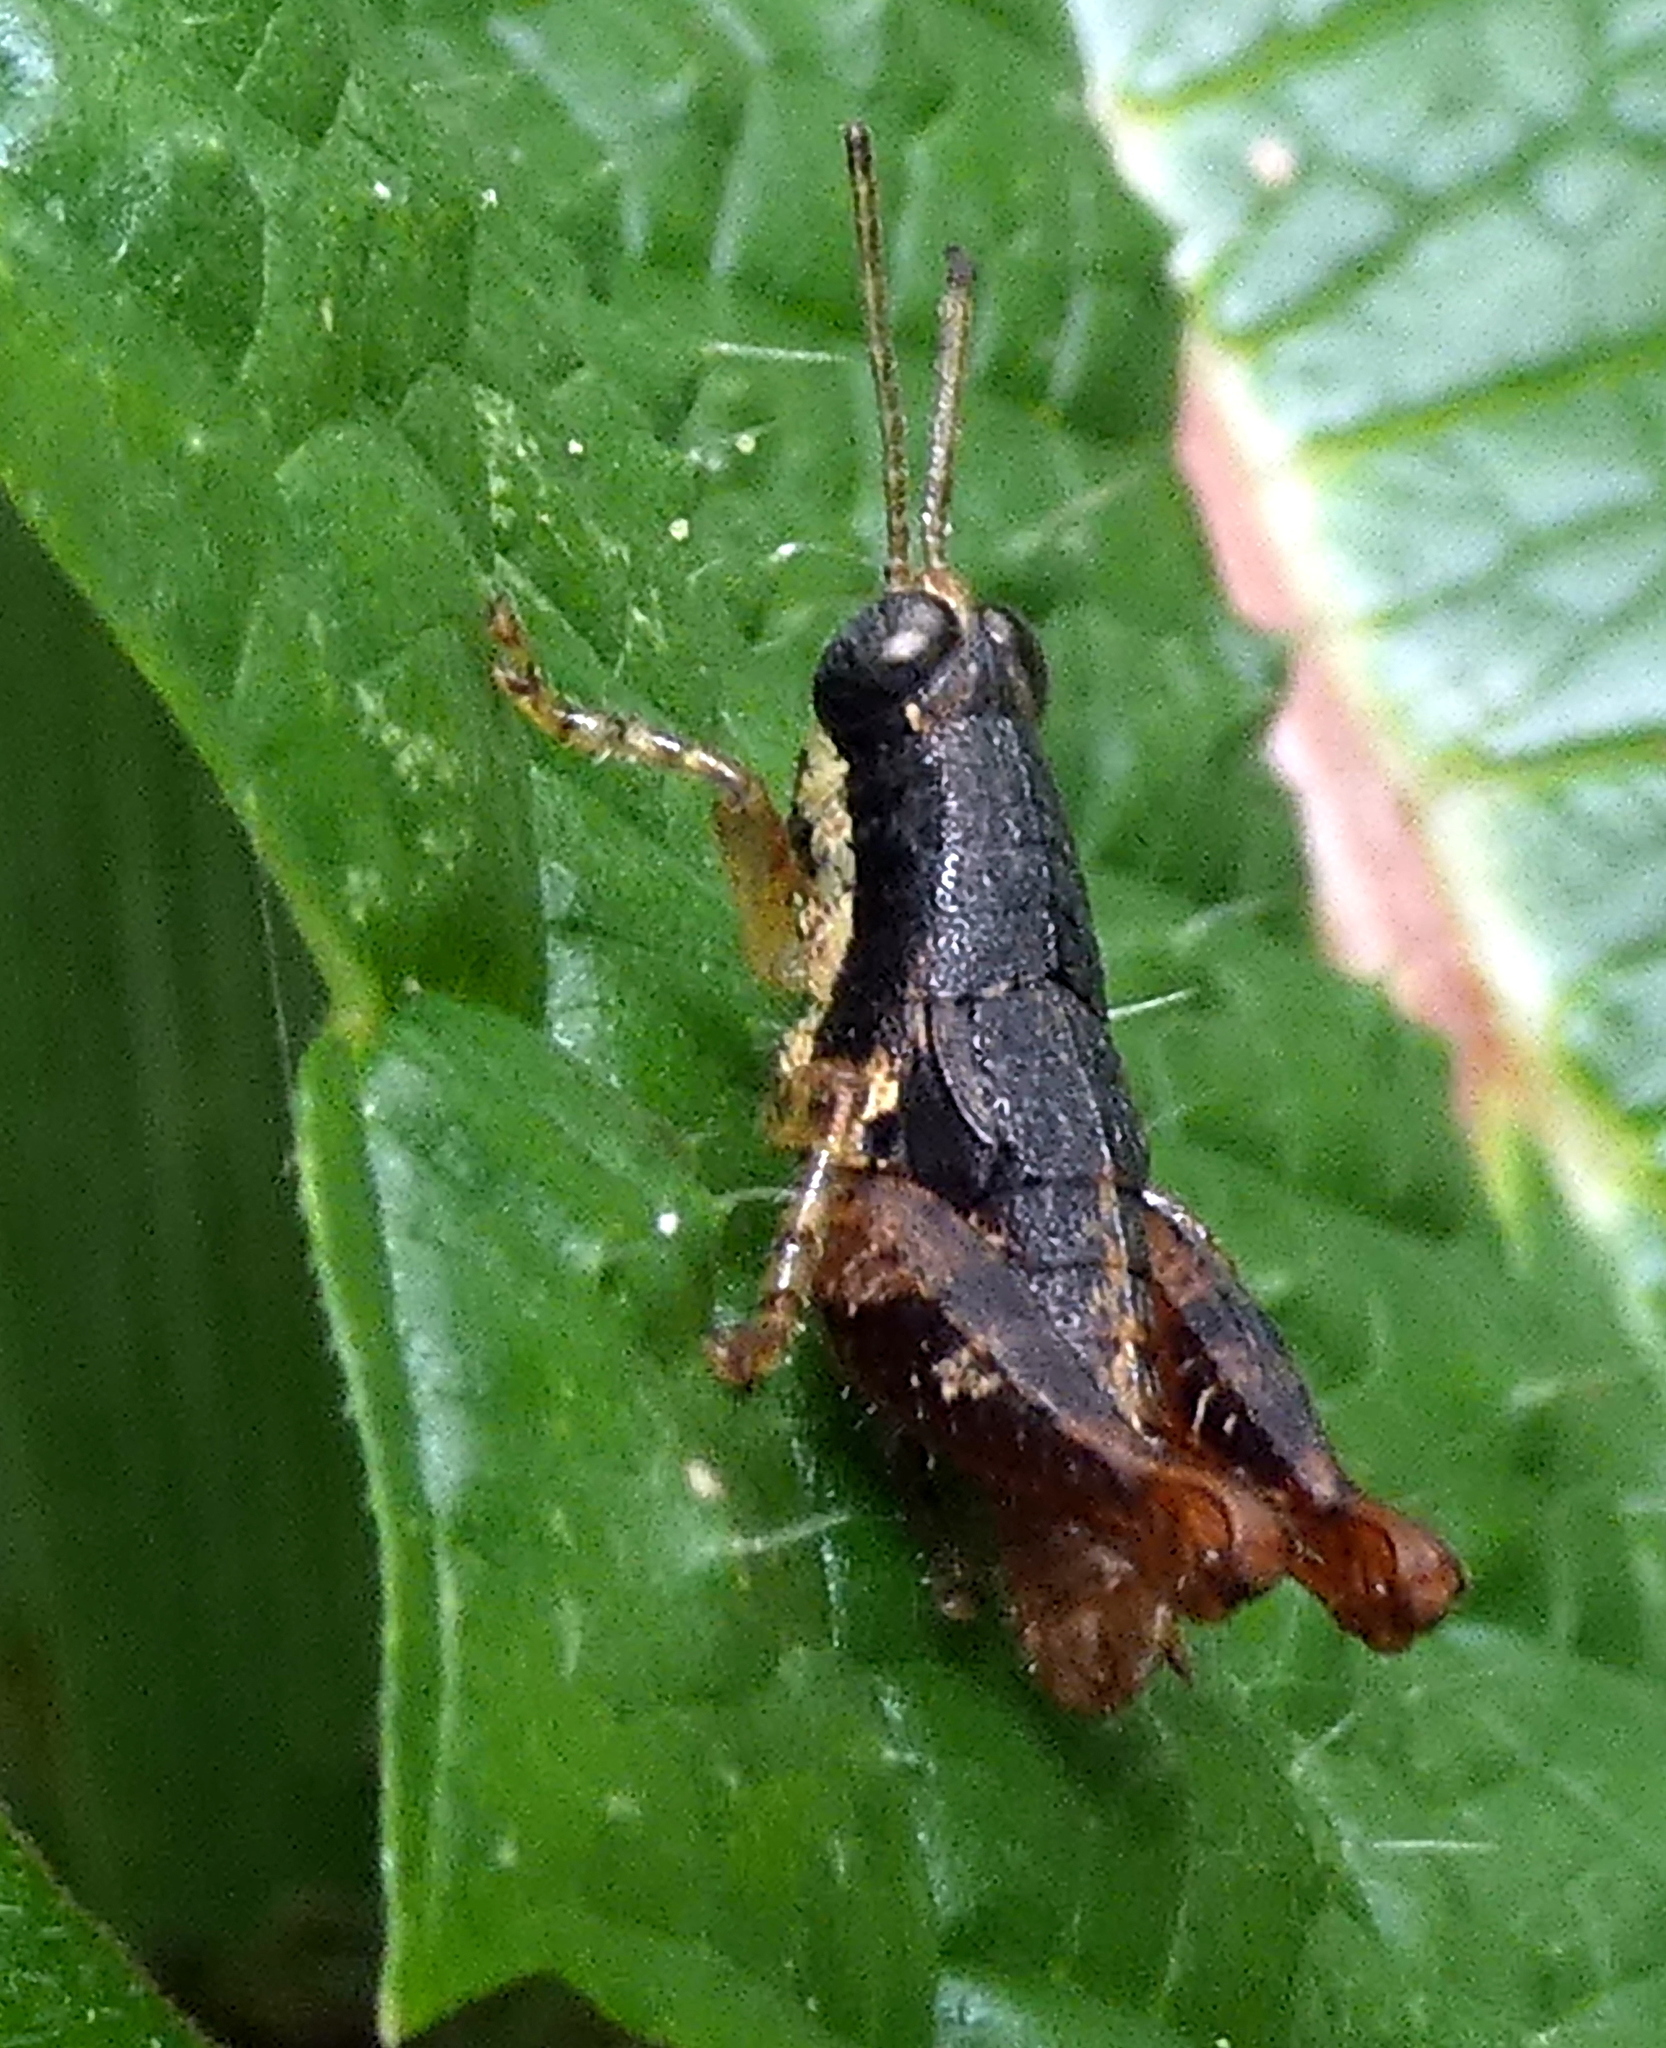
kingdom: Animalia
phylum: Arthropoda
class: Insecta
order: Orthoptera
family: Acrididae
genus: Eujivarus
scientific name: Eujivarus meridionalis
